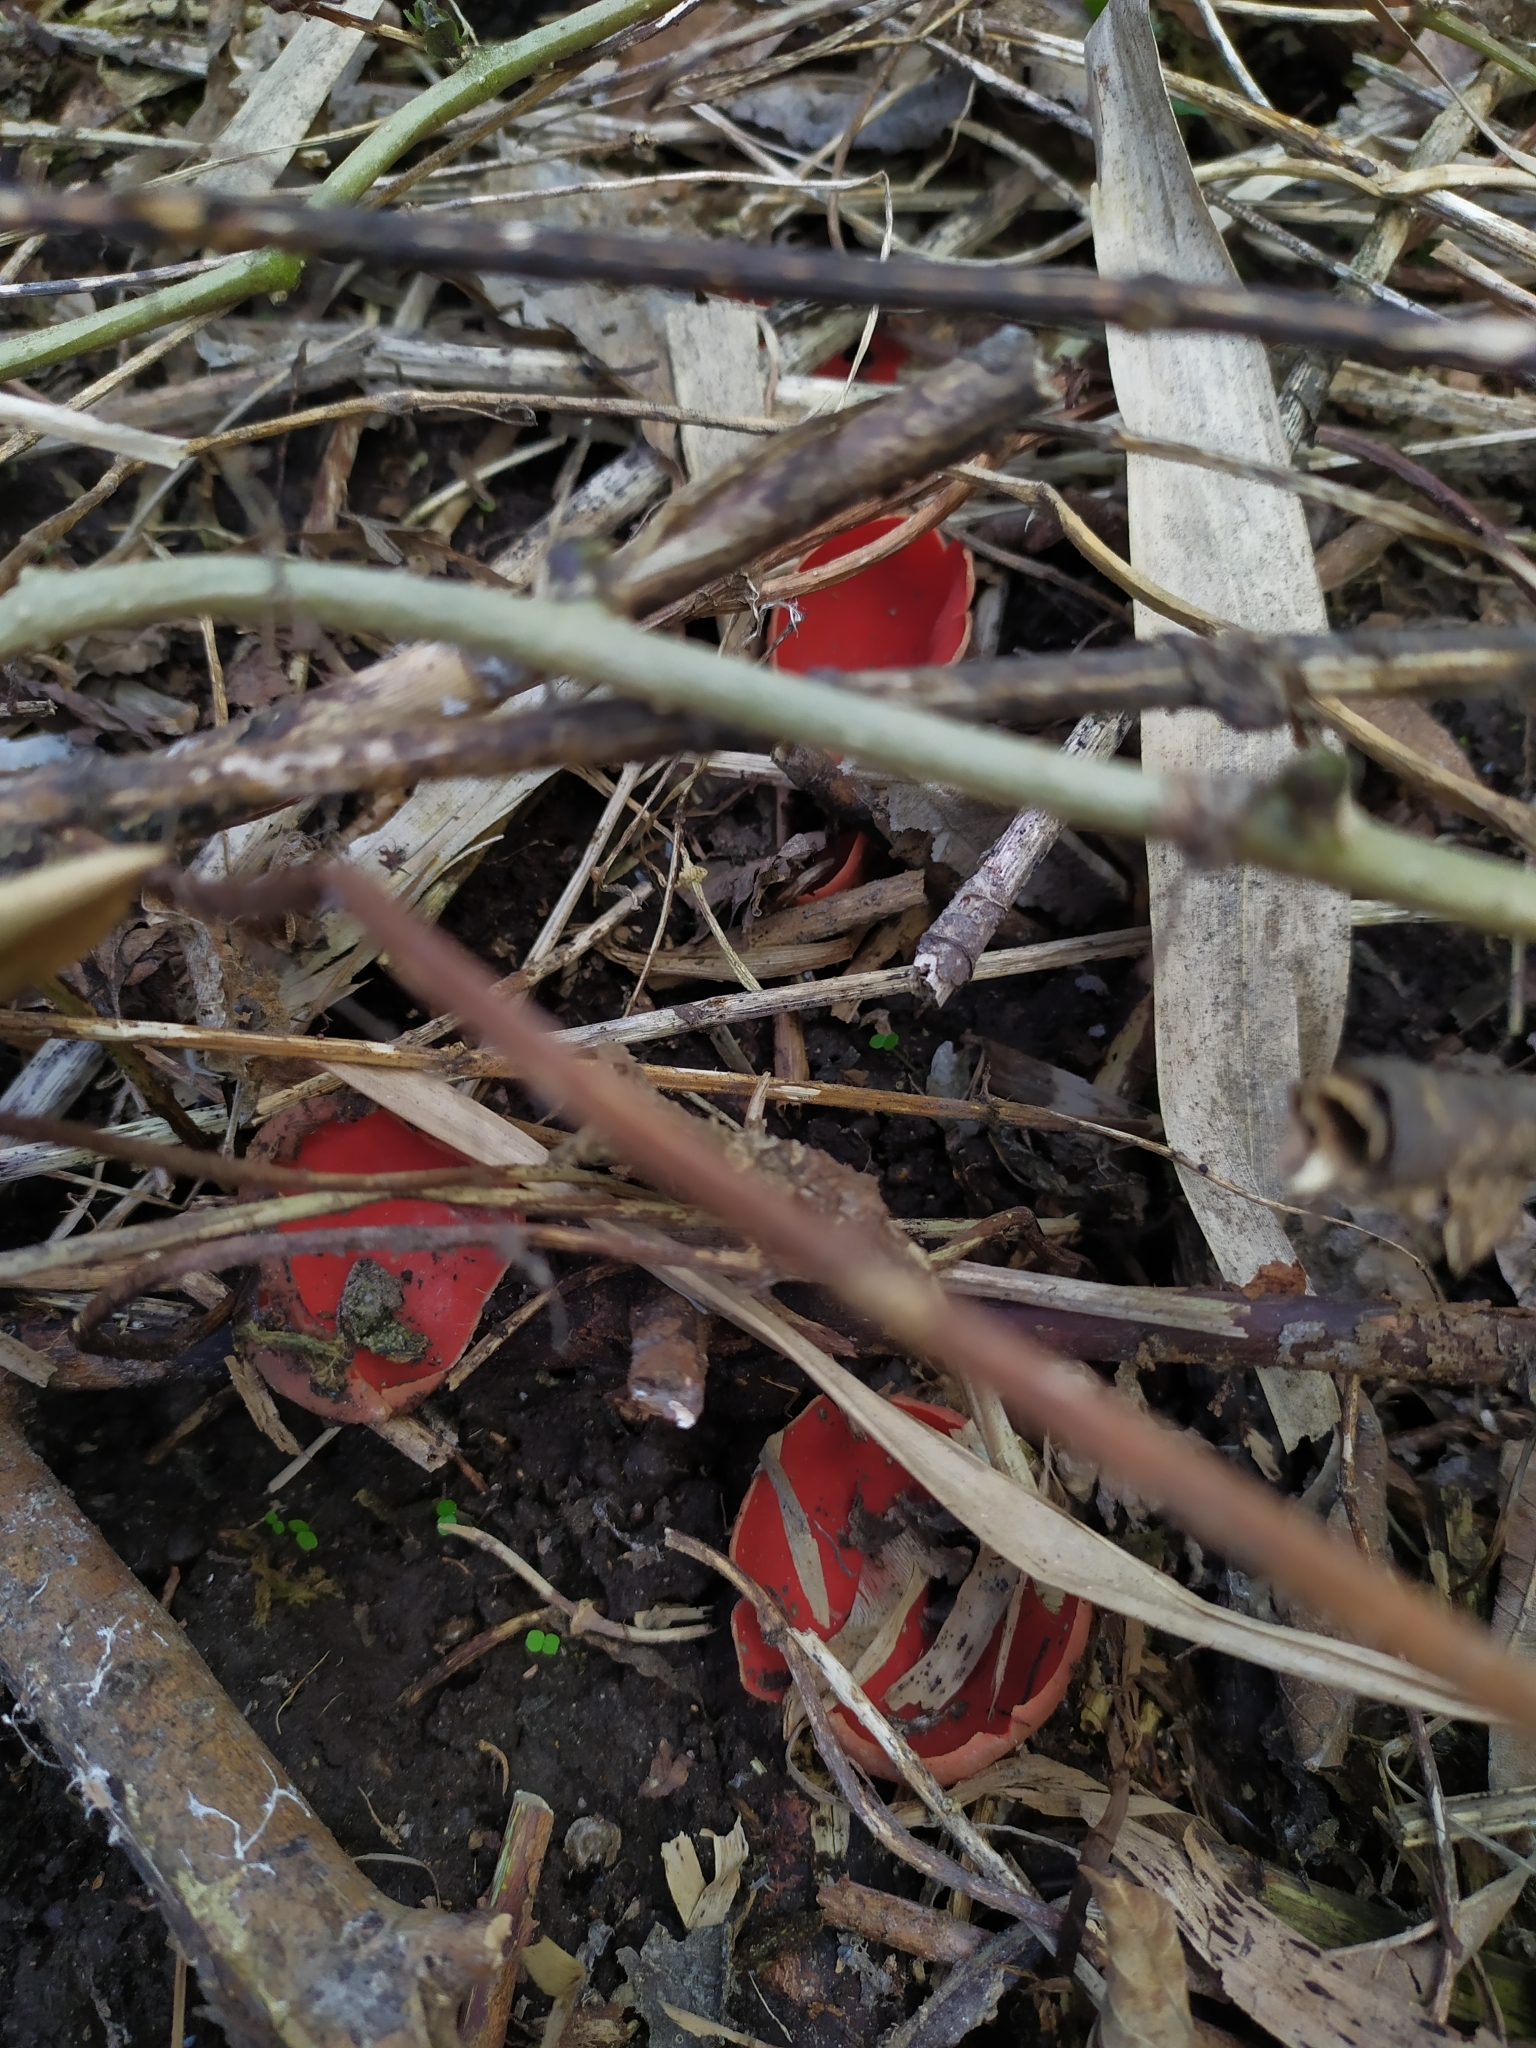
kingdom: Fungi
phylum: Ascomycota
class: Pezizomycetes
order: Pezizales
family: Sarcoscyphaceae
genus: Sarcoscypha
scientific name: Sarcoscypha austriaca
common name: Scarlet elfcup
